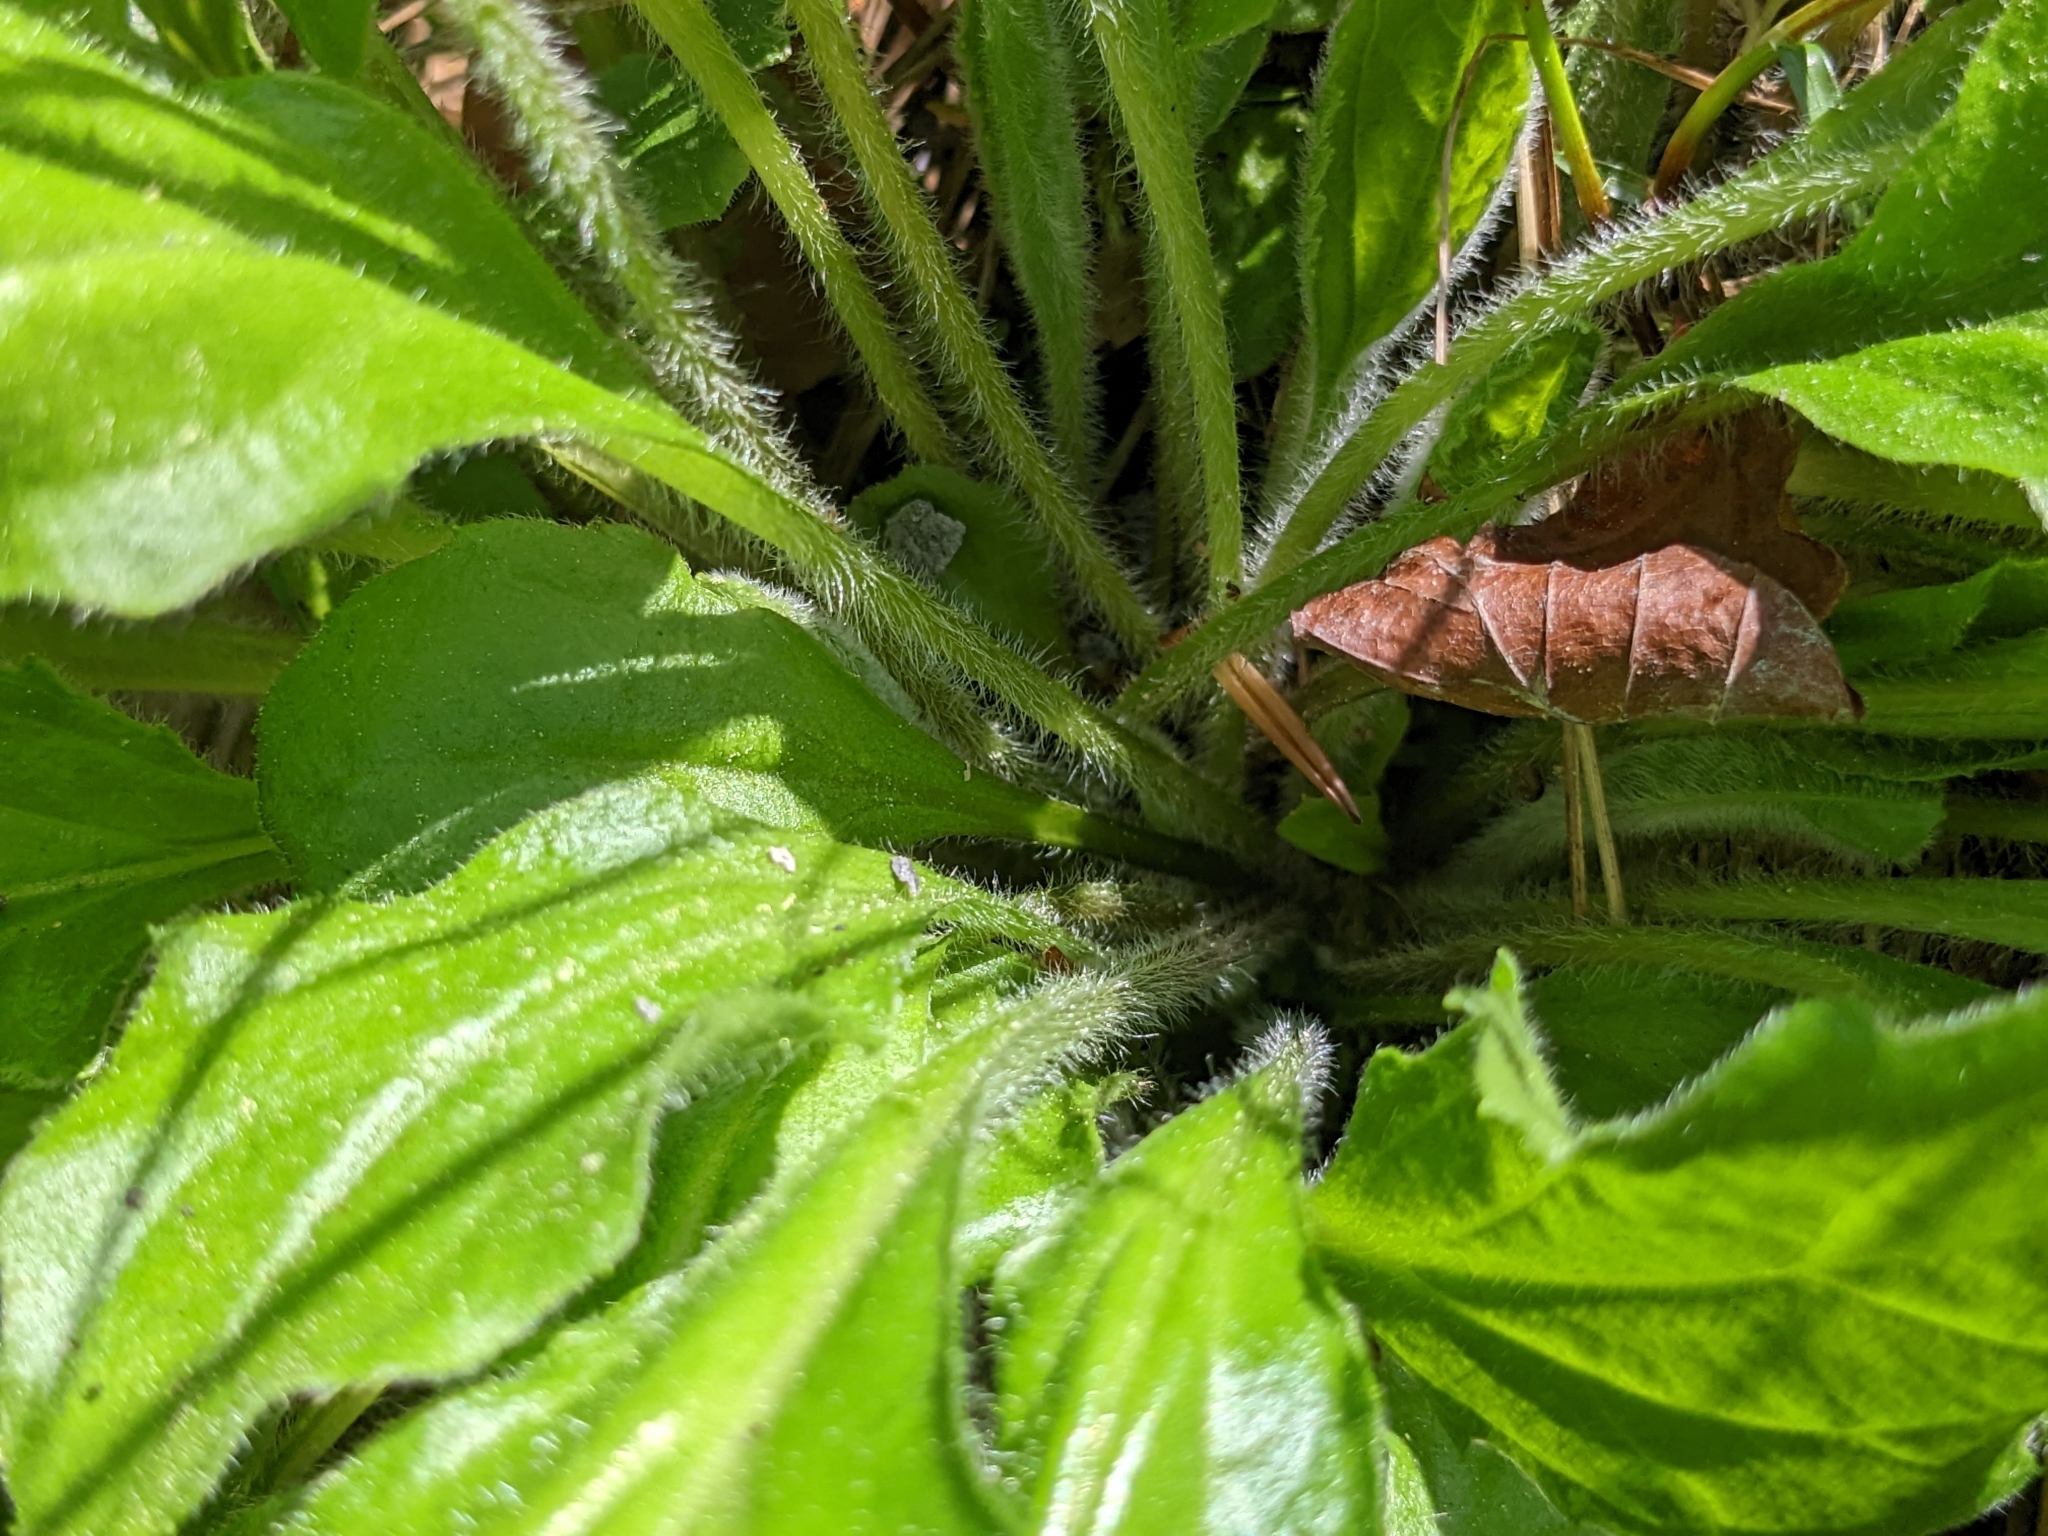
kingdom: Plantae
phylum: Tracheophyta
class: Magnoliopsida
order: Asterales
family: Asteraceae
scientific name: Asteraceae
